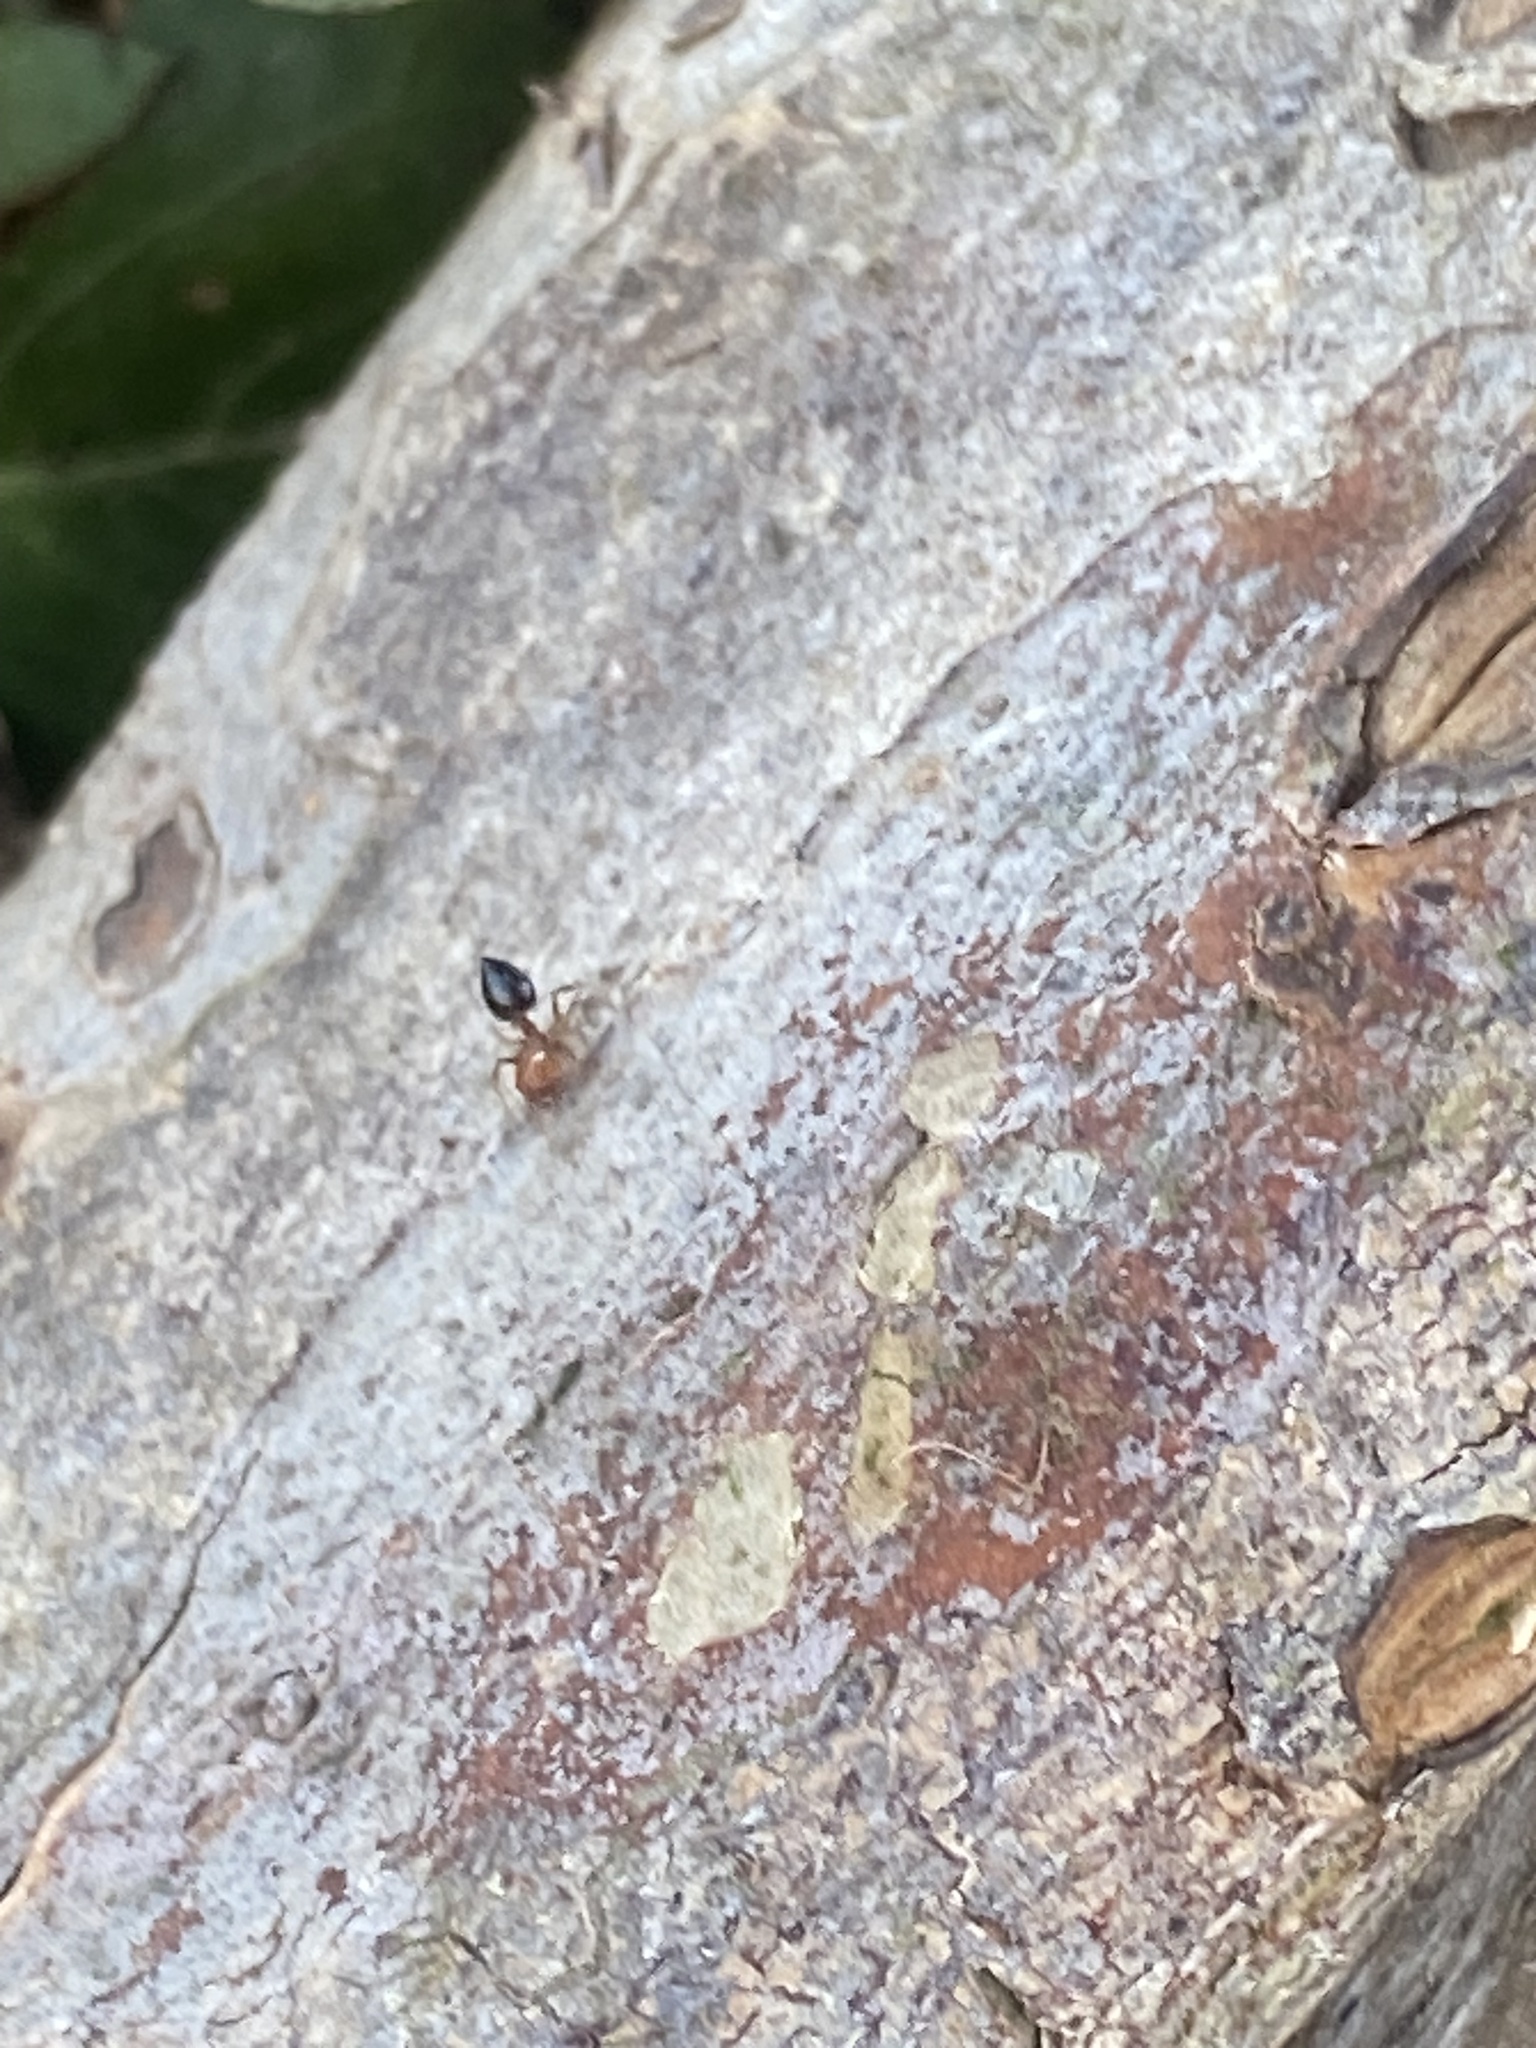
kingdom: Animalia
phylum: Arthropoda
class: Insecta
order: Hymenoptera
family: Formicidae
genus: Crematogaster
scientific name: Crematogaster laeviuscula
